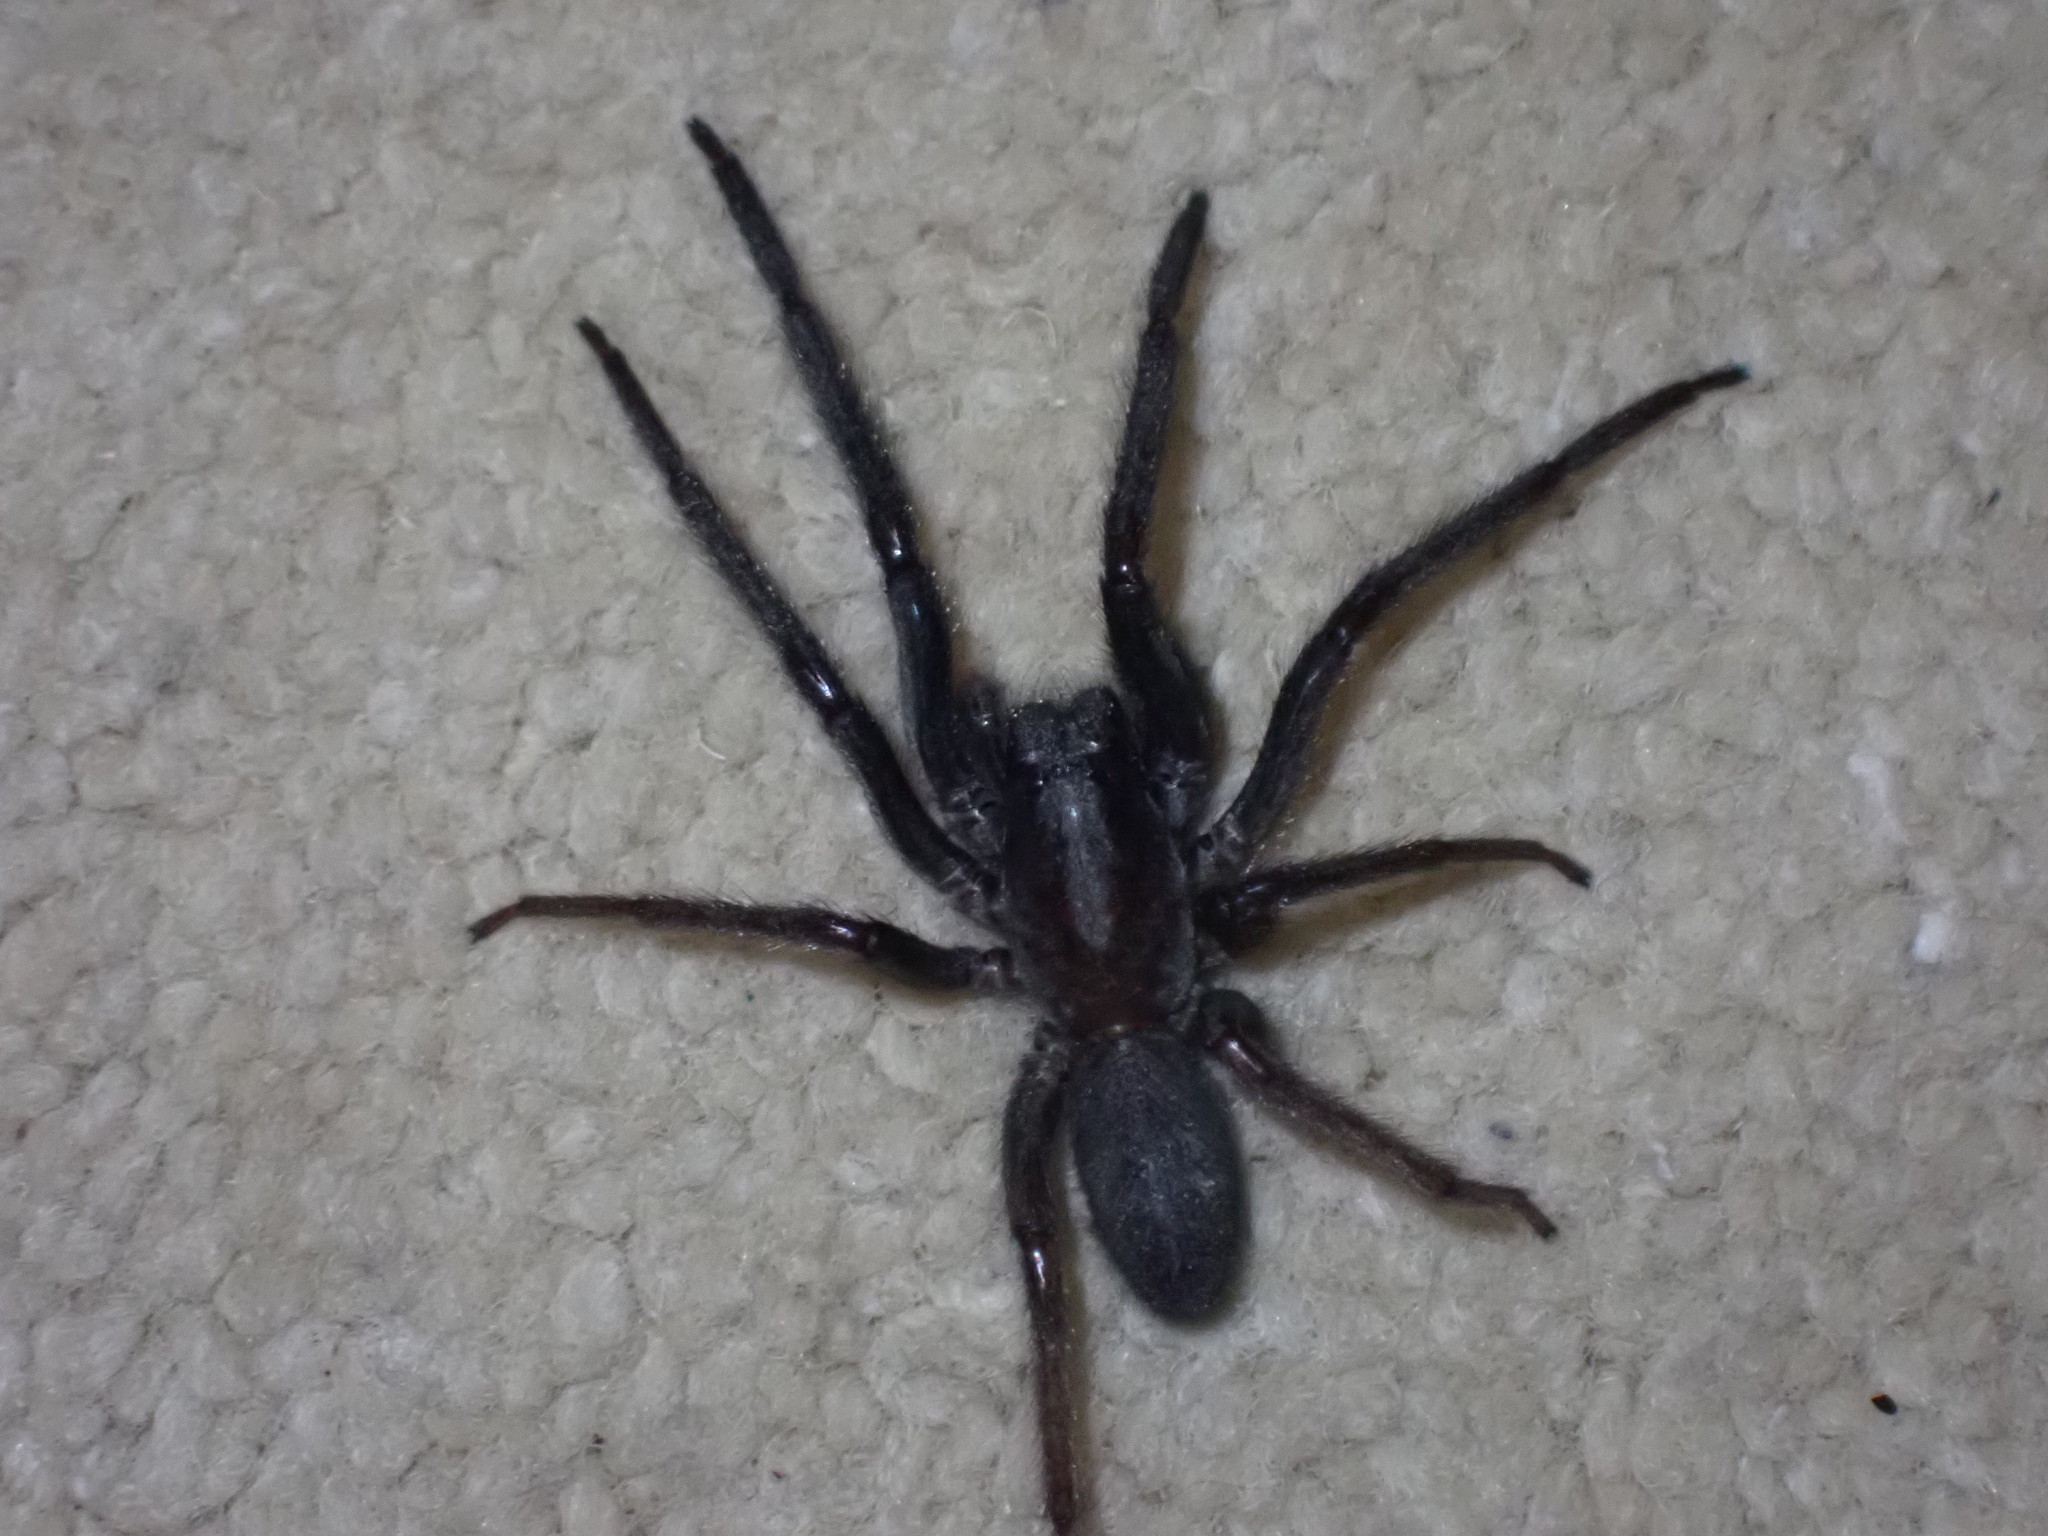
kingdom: Animalia
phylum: Arthropoda
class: Arachnida
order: Araneae
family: Segestriidae
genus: Segestria
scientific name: Segestria florentina
